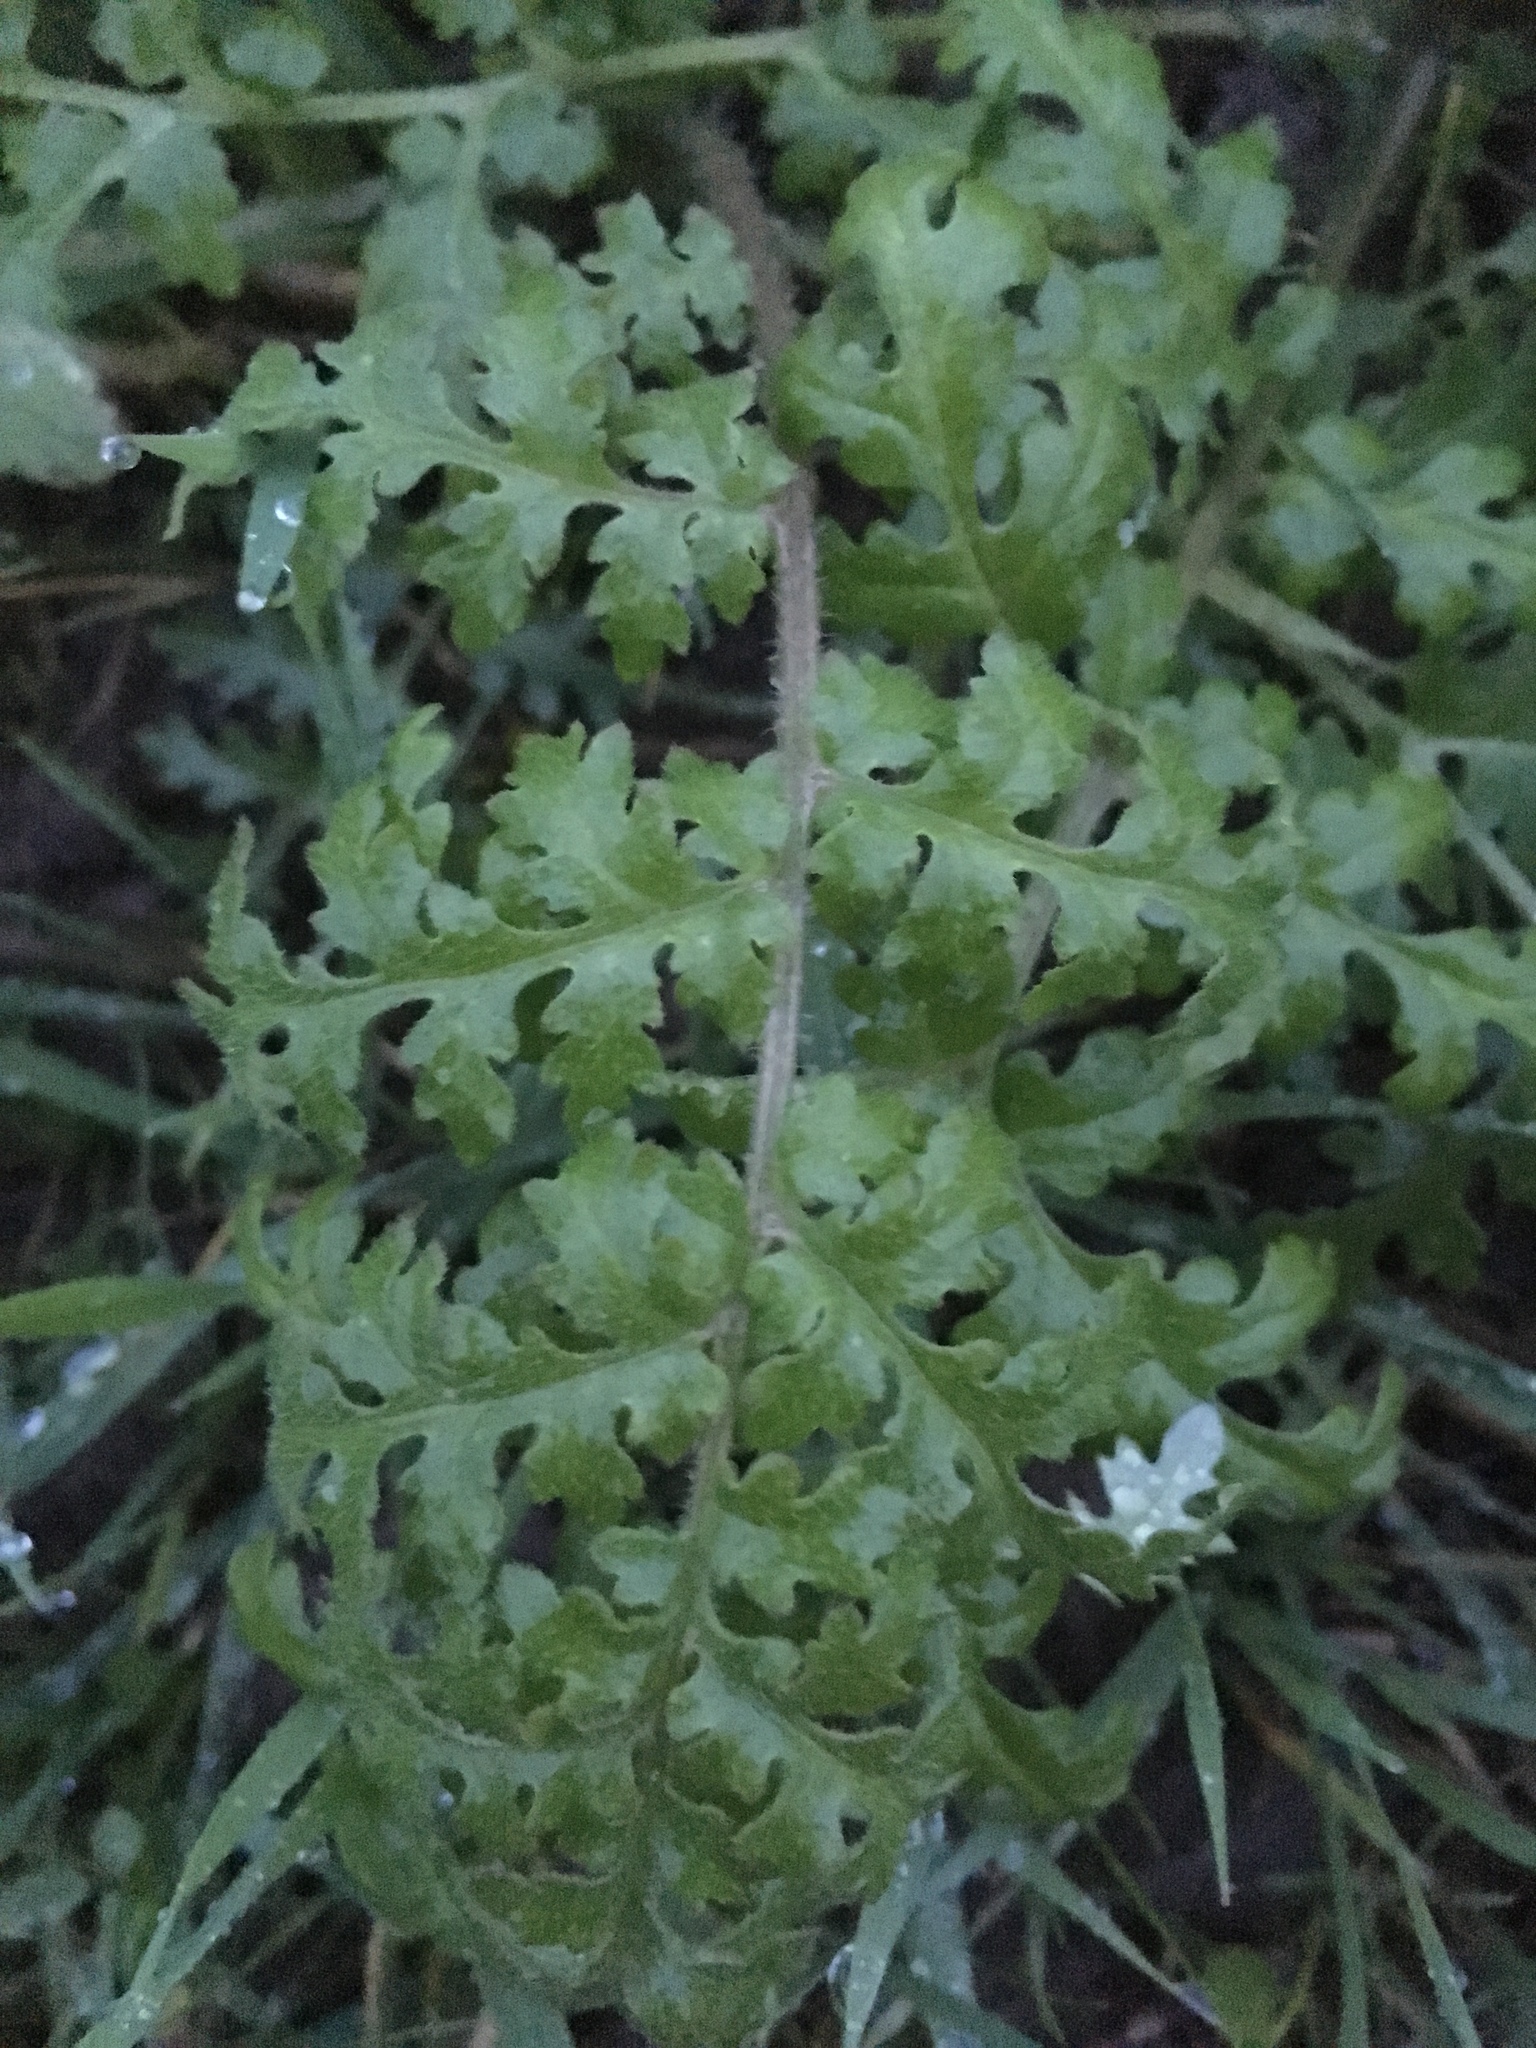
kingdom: Plantae
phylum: Tracheophyta
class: Magnoliopsida
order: Boraginales
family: Hydrophyllaceae
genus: Phacelia
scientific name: Phacelia tanacetifolia
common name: Phacelia
